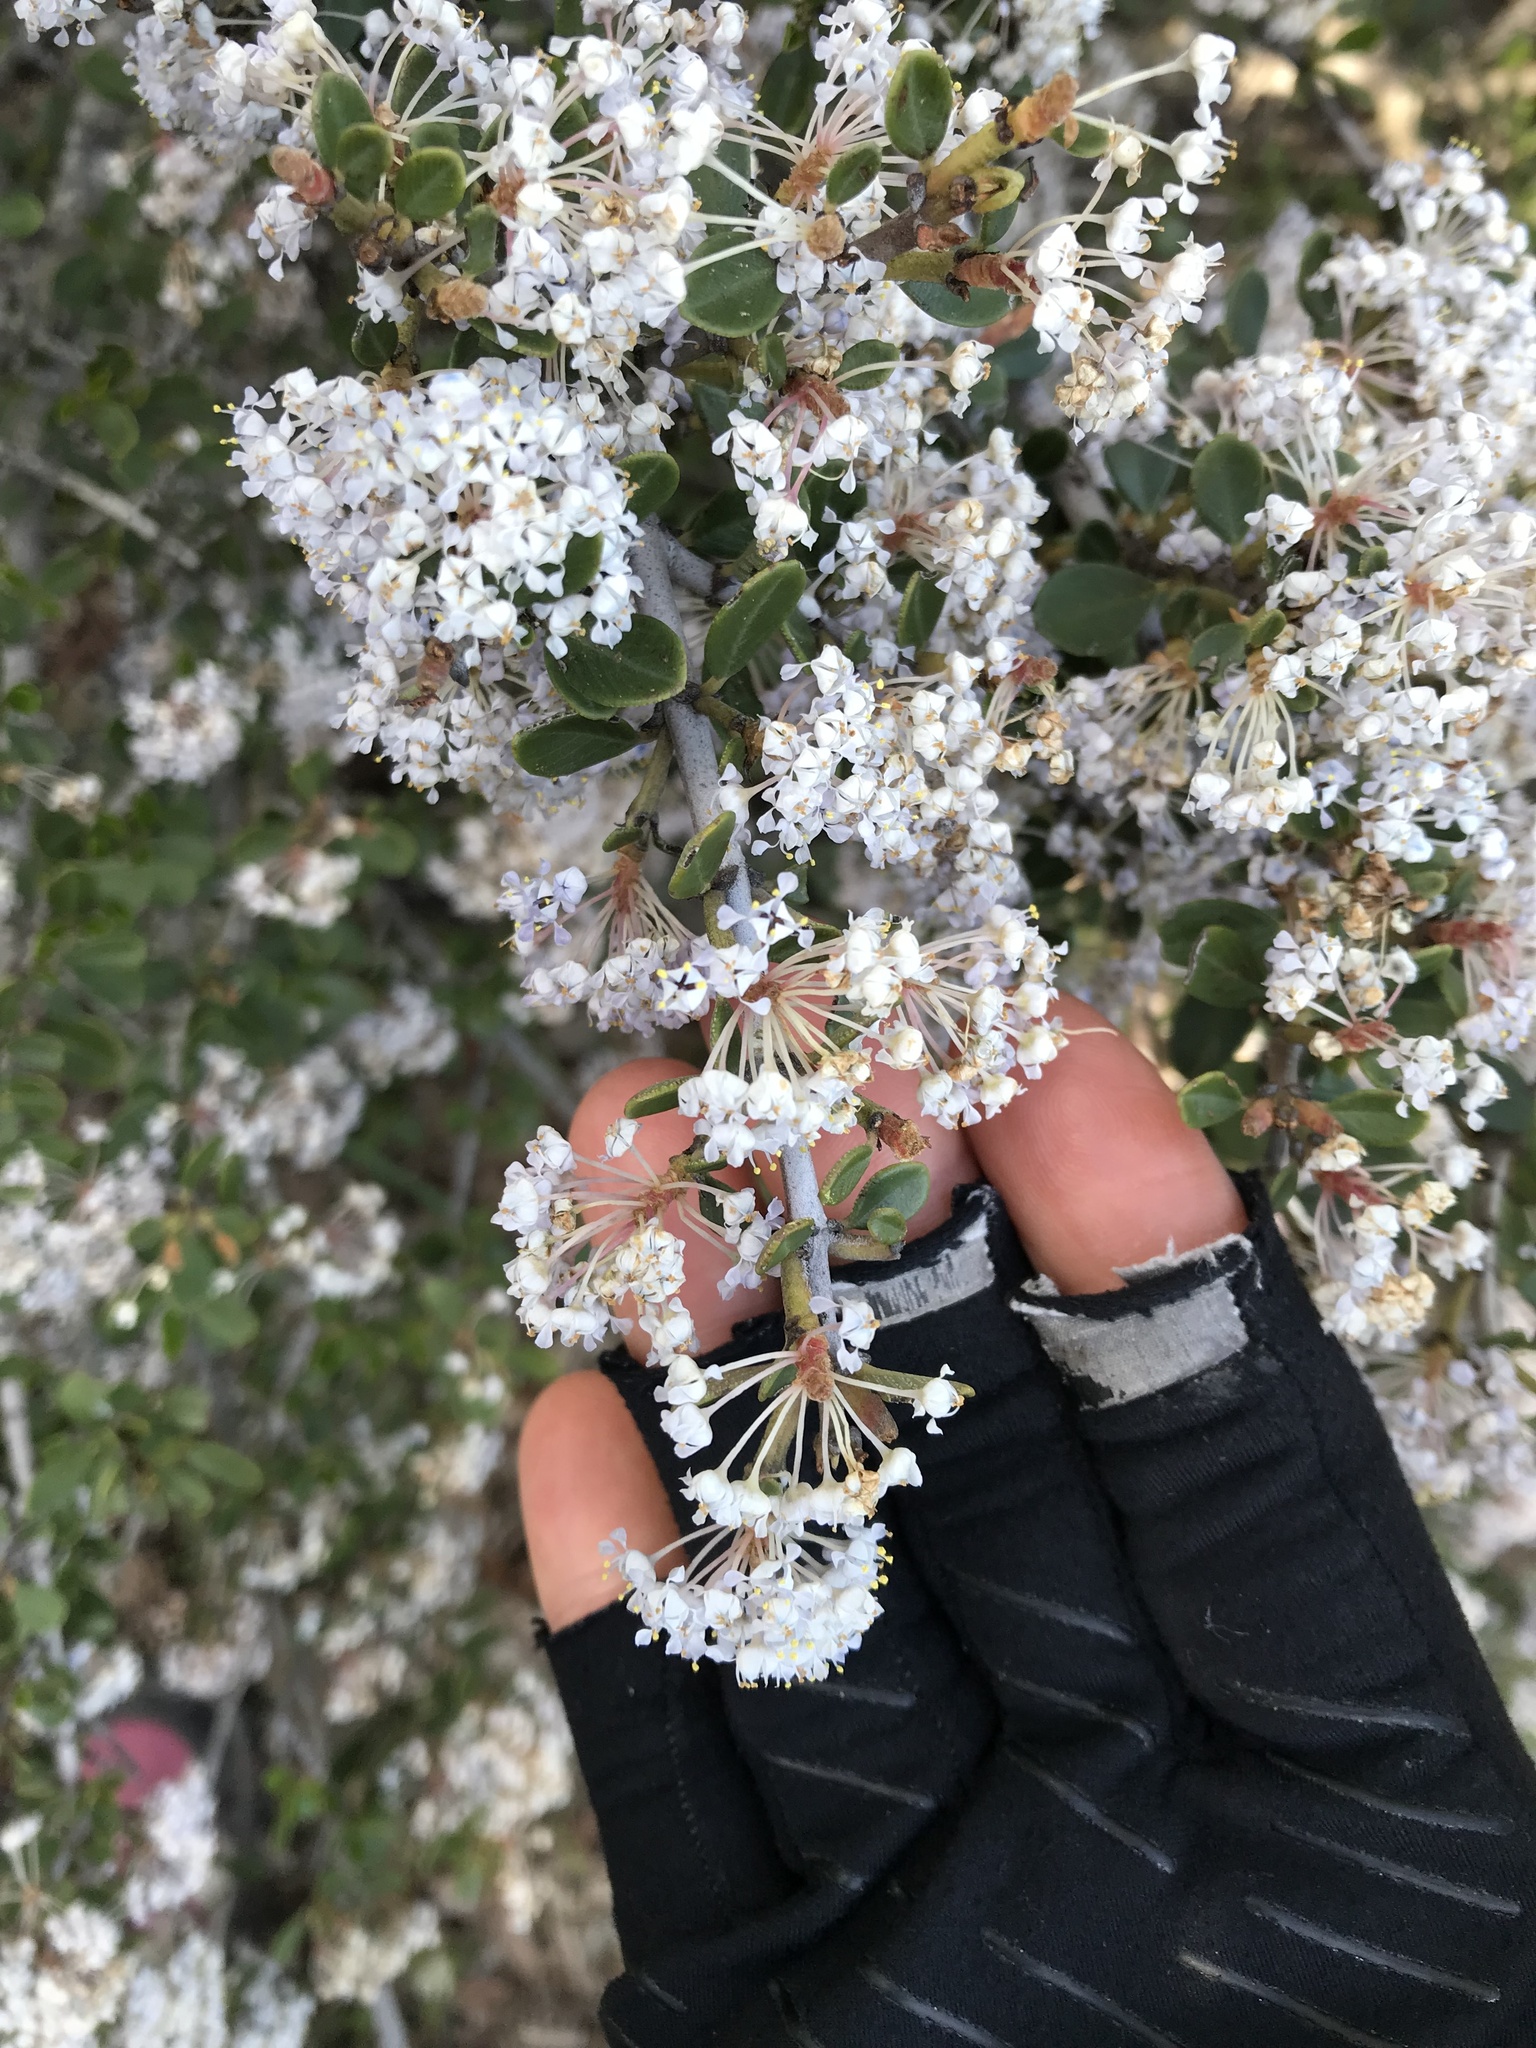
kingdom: Plantae
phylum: Tracheophyta
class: Magnoliopsida
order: Rosales
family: Rhamnaceae
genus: Ceanothus
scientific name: Ceanothus cuneatus
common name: Cuneate ceanothus
